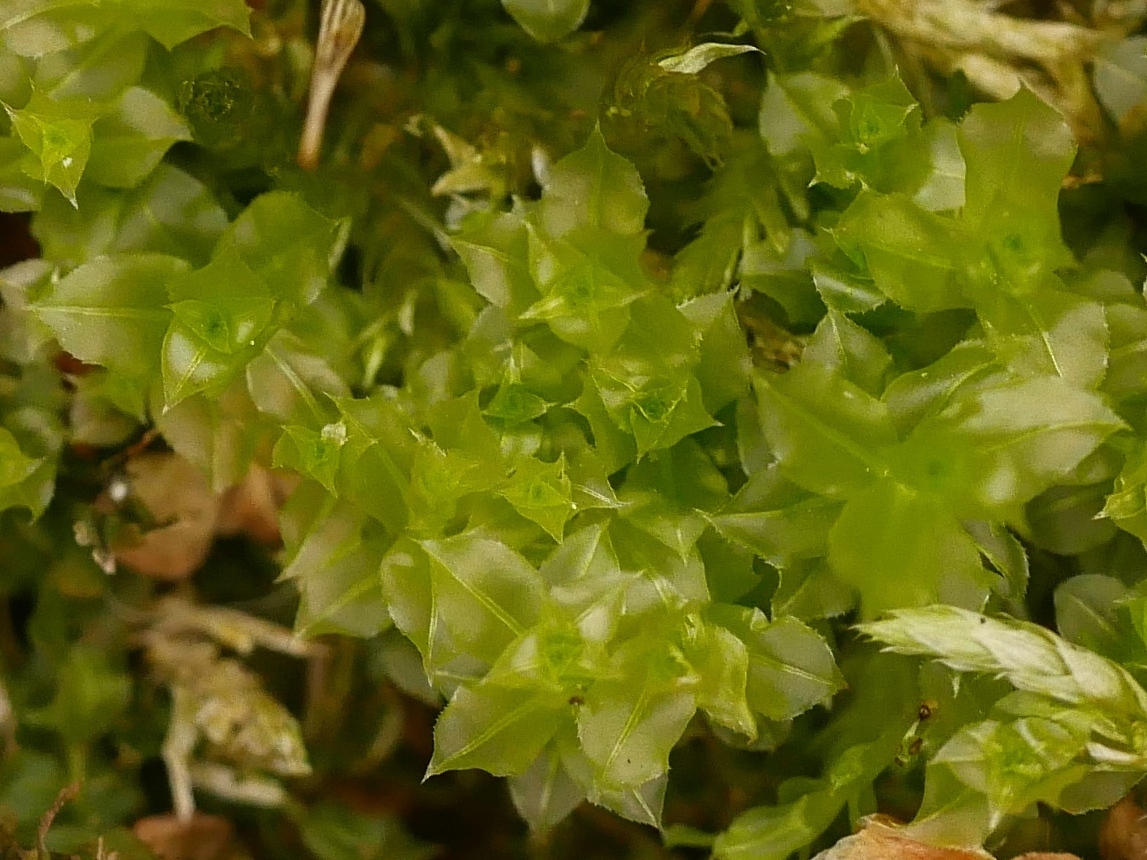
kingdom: Plantae
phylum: Bryophyta
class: Bryopsida
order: Bryales
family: Mniaceae
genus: Plagiomnium
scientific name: Plagiomnium cuspidatum
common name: Woodsy leafy moss
